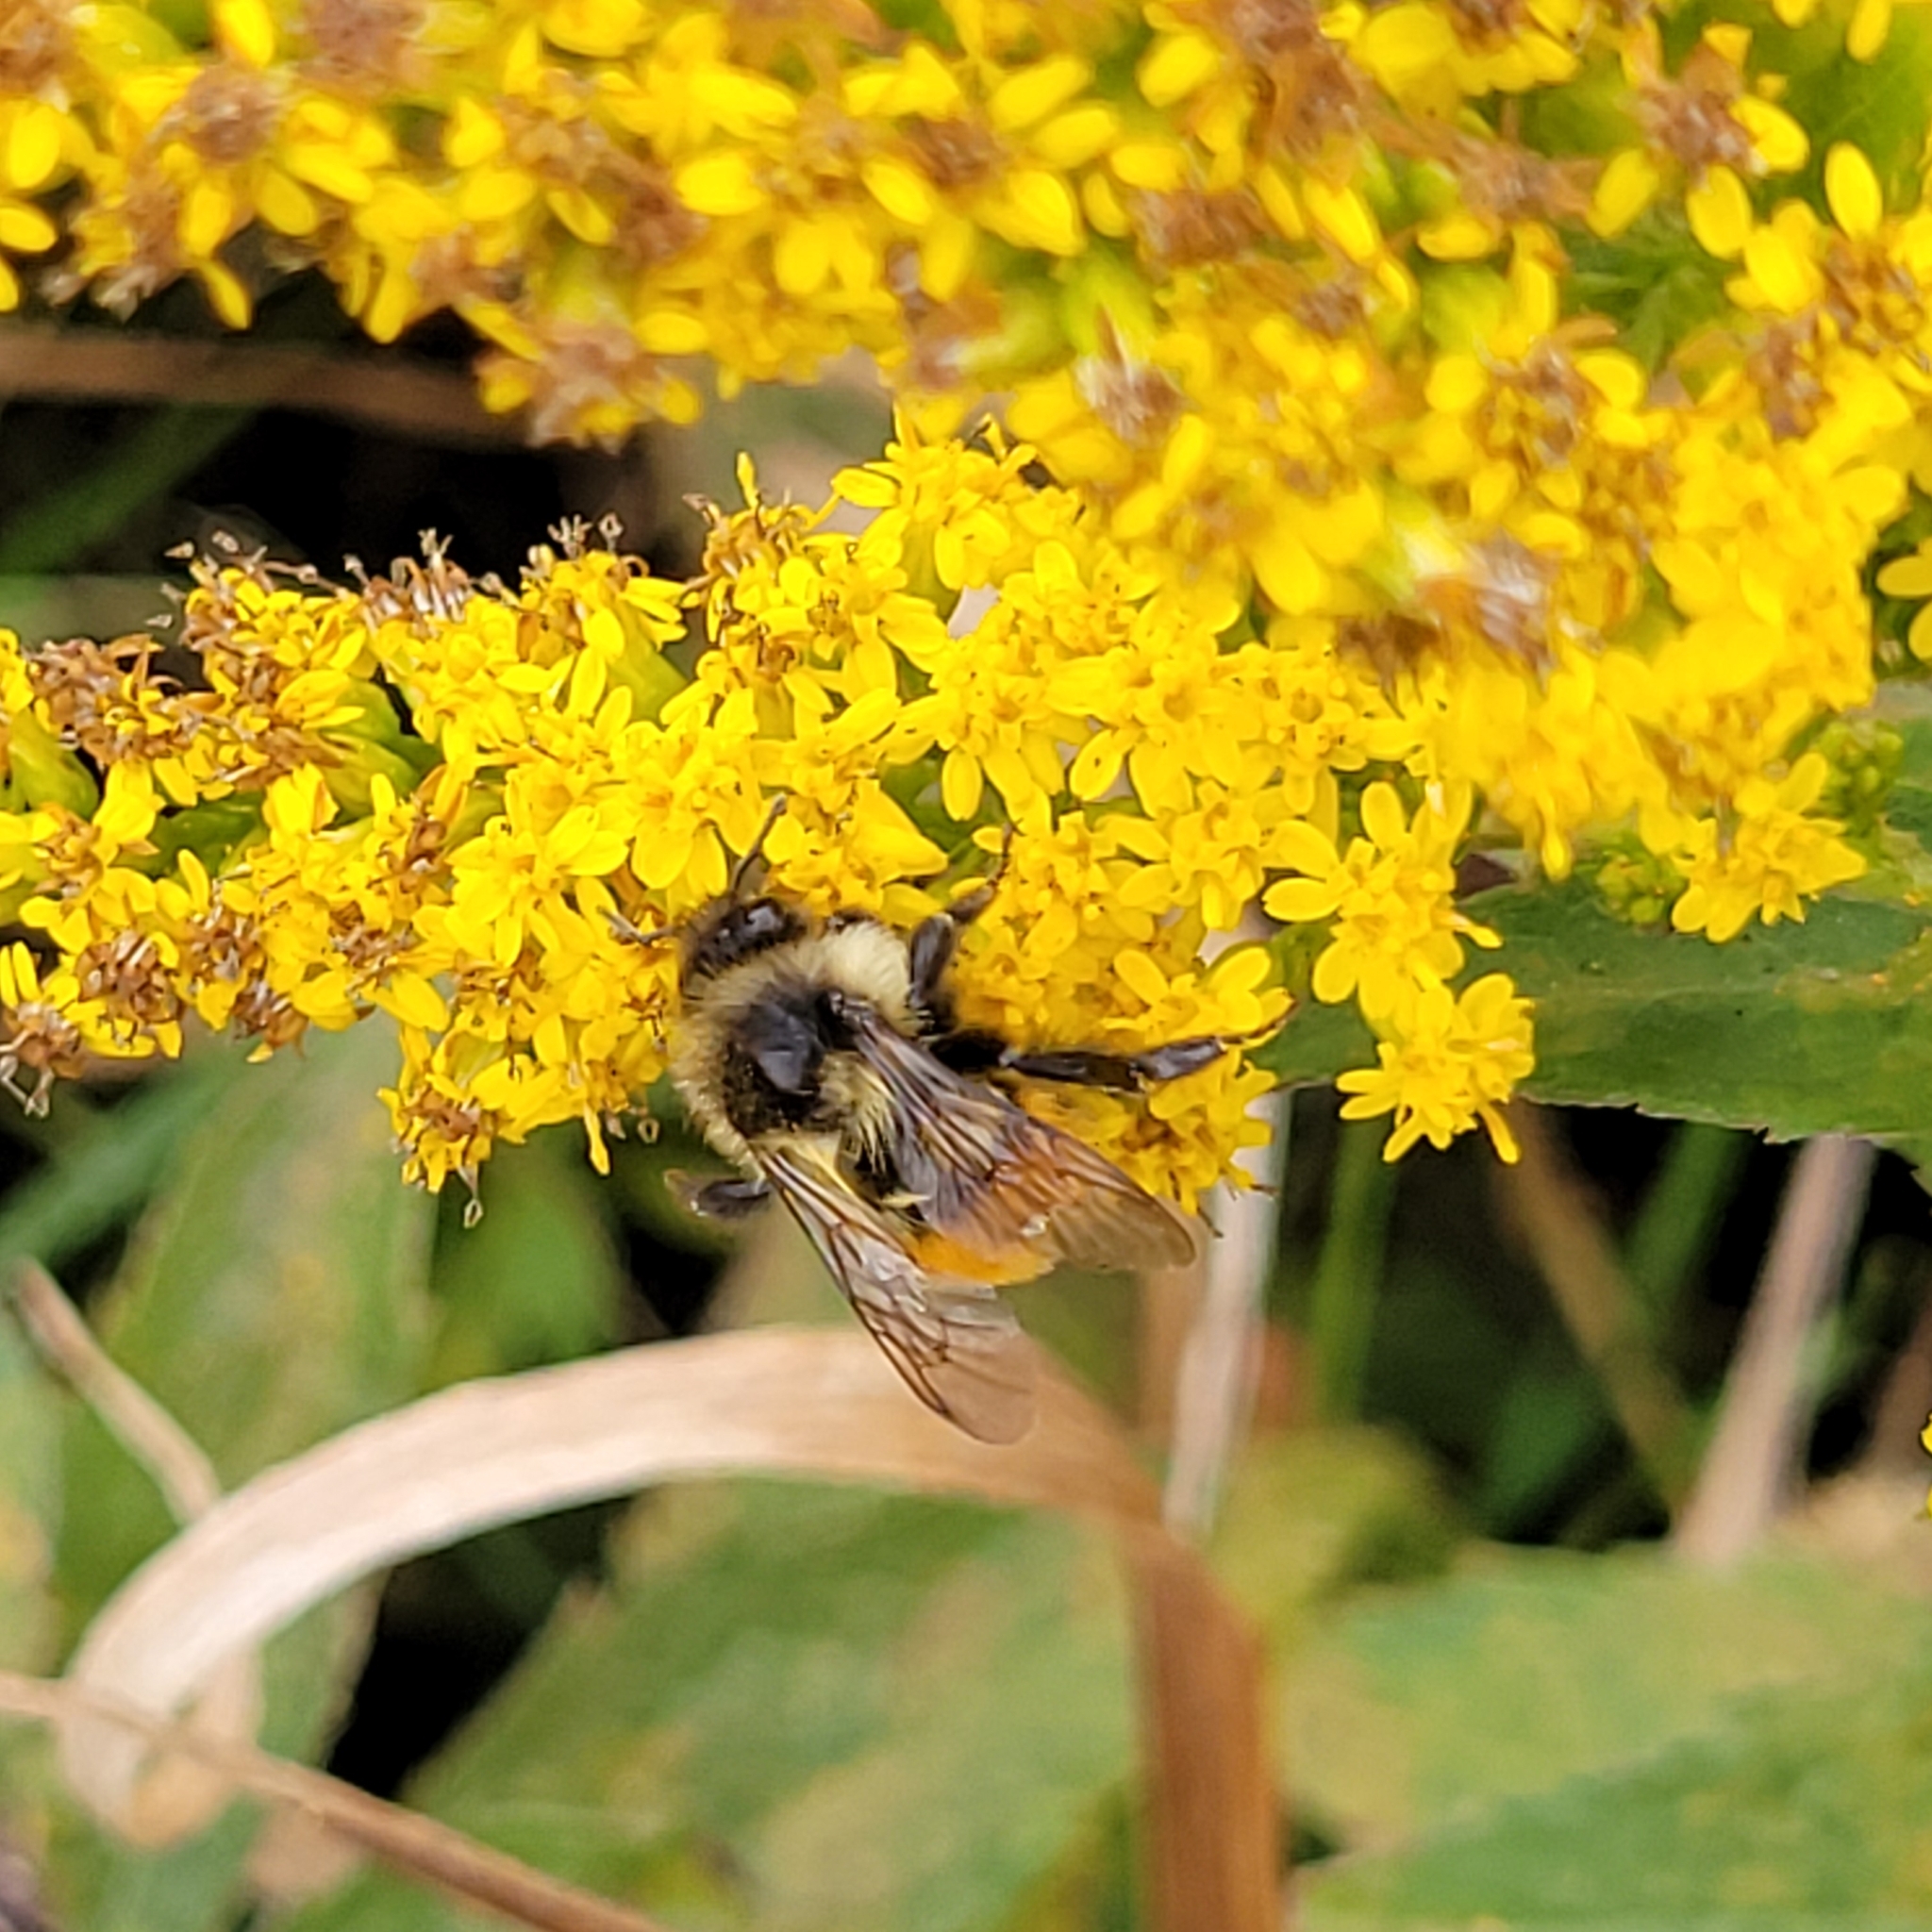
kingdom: Animalia
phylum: Arthropoda
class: Insecta
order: Hymenoptera
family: Apidae
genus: Bombus
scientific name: Bombus ternarius
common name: Tri-colored bumble bee
